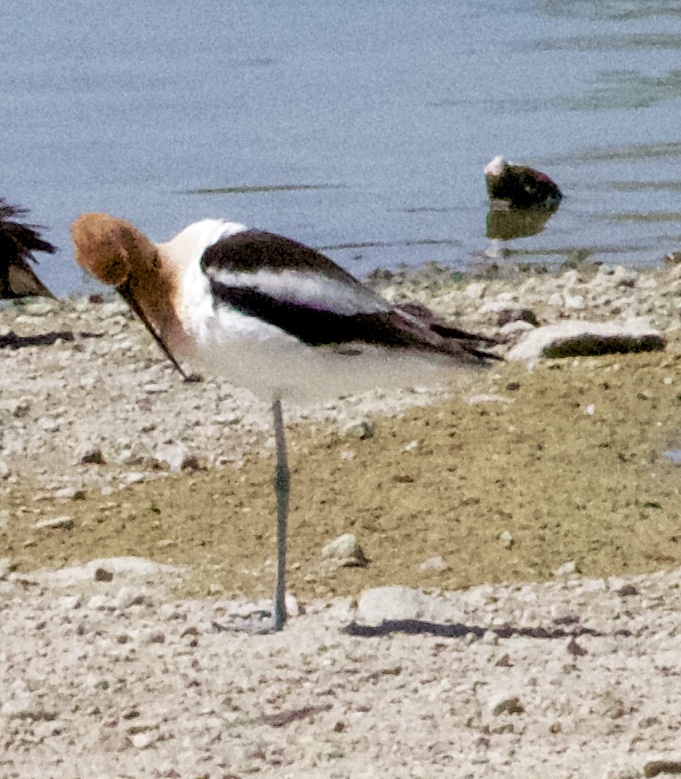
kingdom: Animalia
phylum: Chordata
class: Aves
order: Charadriiformes
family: Recurvirostridae
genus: Recurvirostra
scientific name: Recurvirostra americana
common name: American avocet
